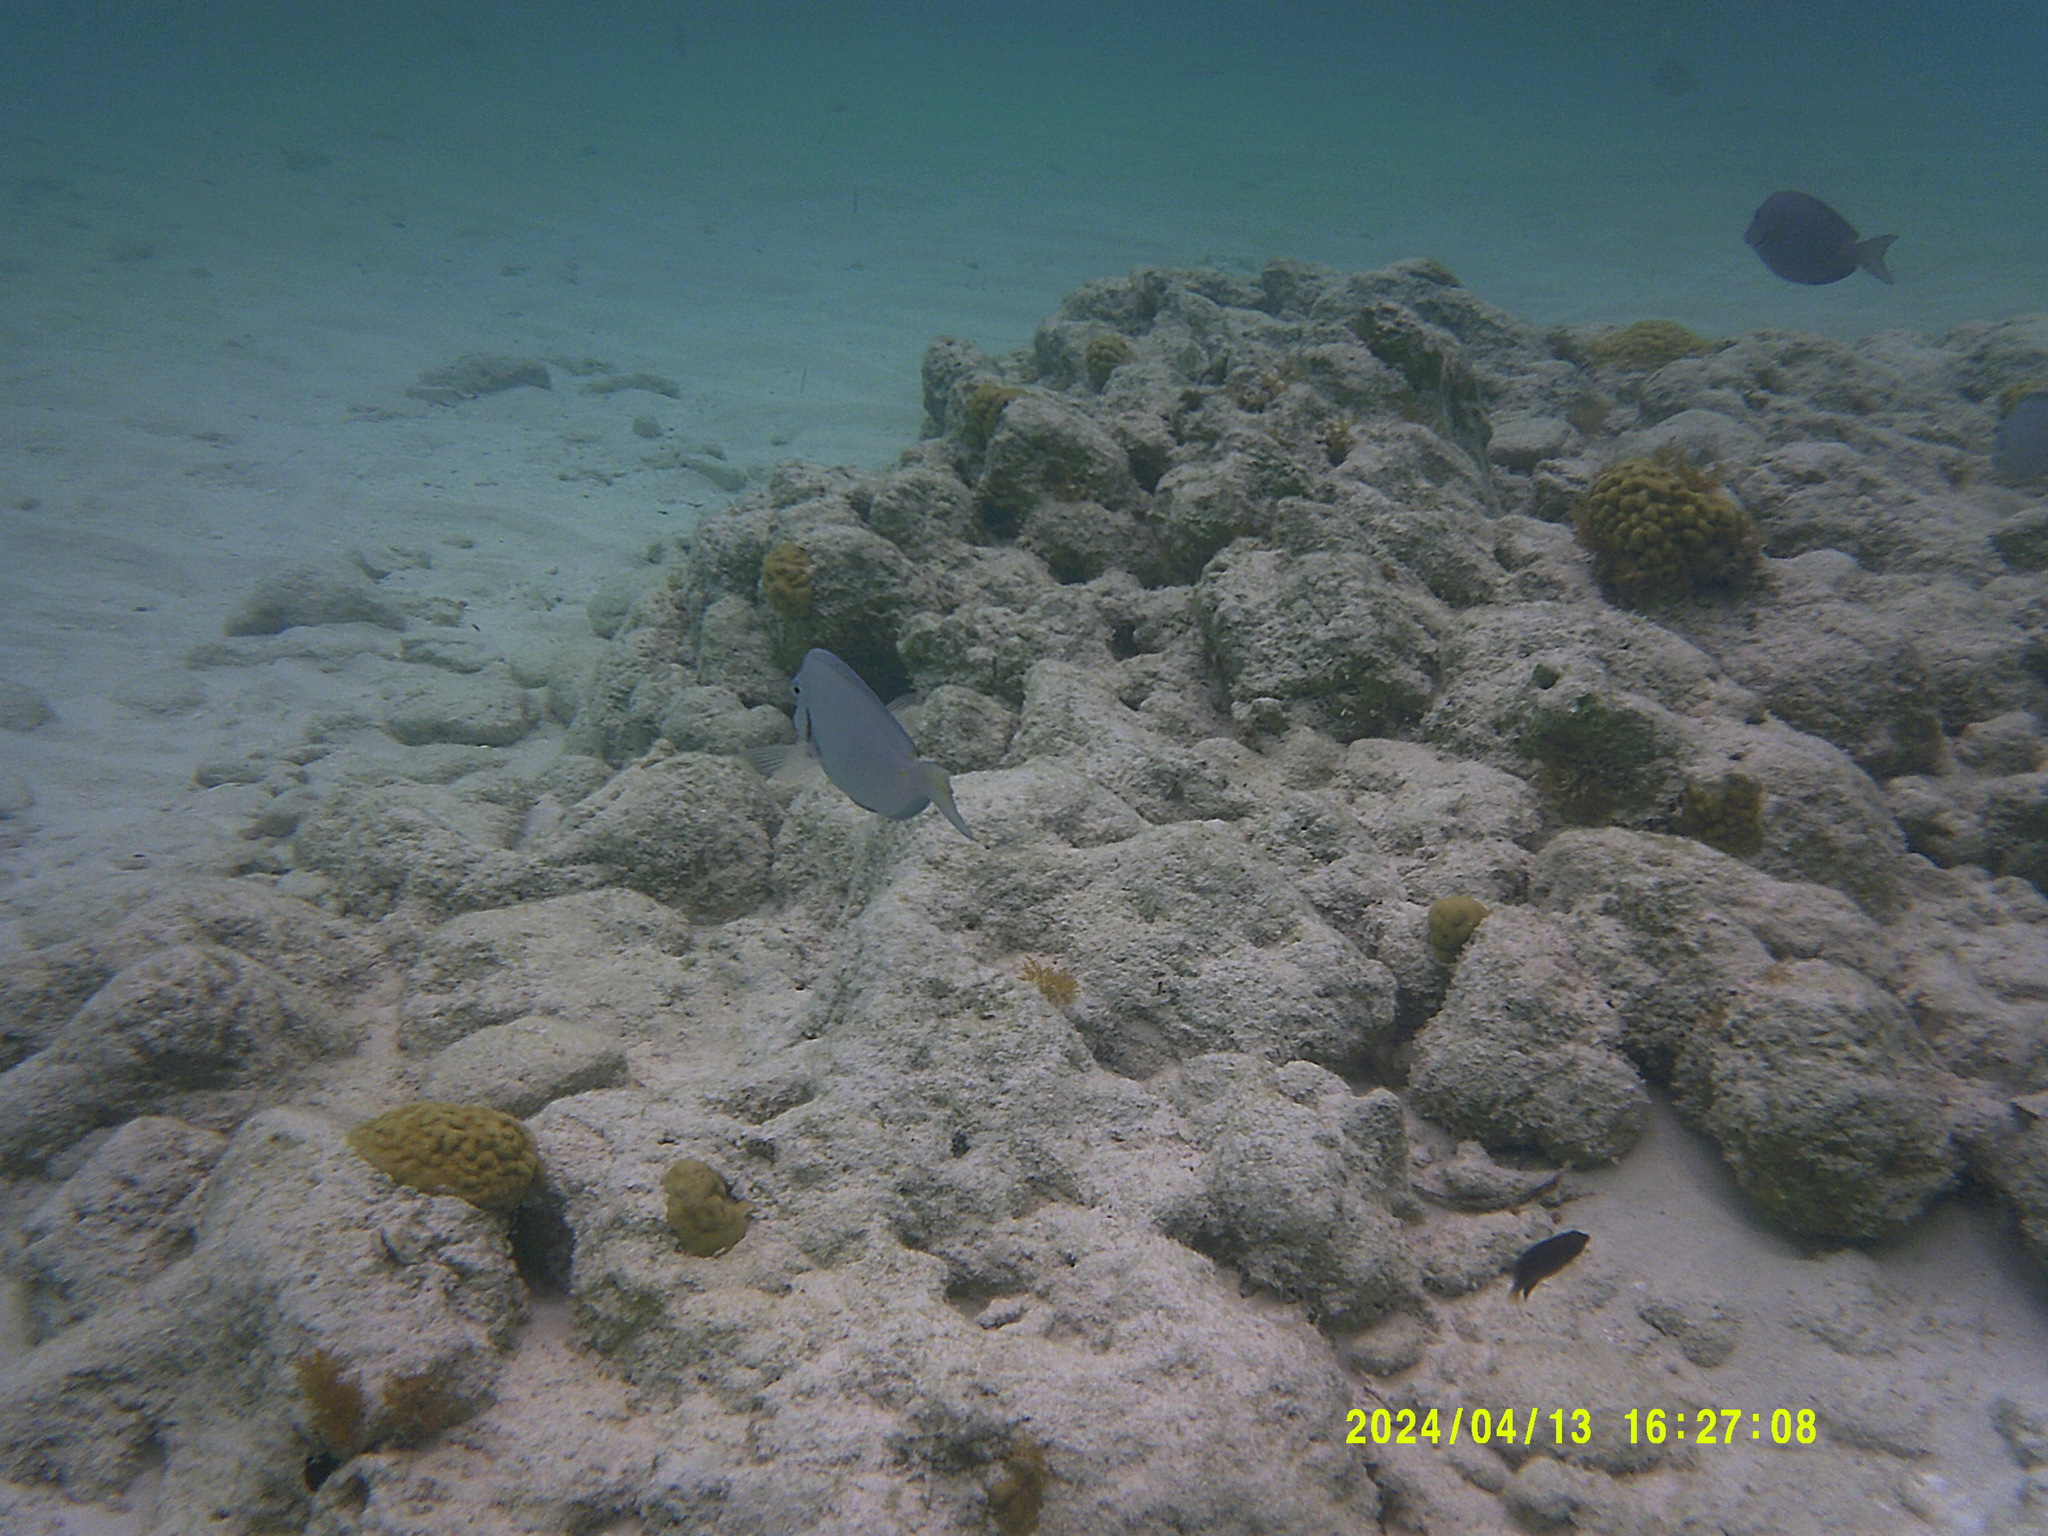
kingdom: Animalia
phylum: Chordata
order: Perciformes
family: Acanthuridae
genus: Acanthurus
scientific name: Acanthurus coeruleus
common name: Blue tang
